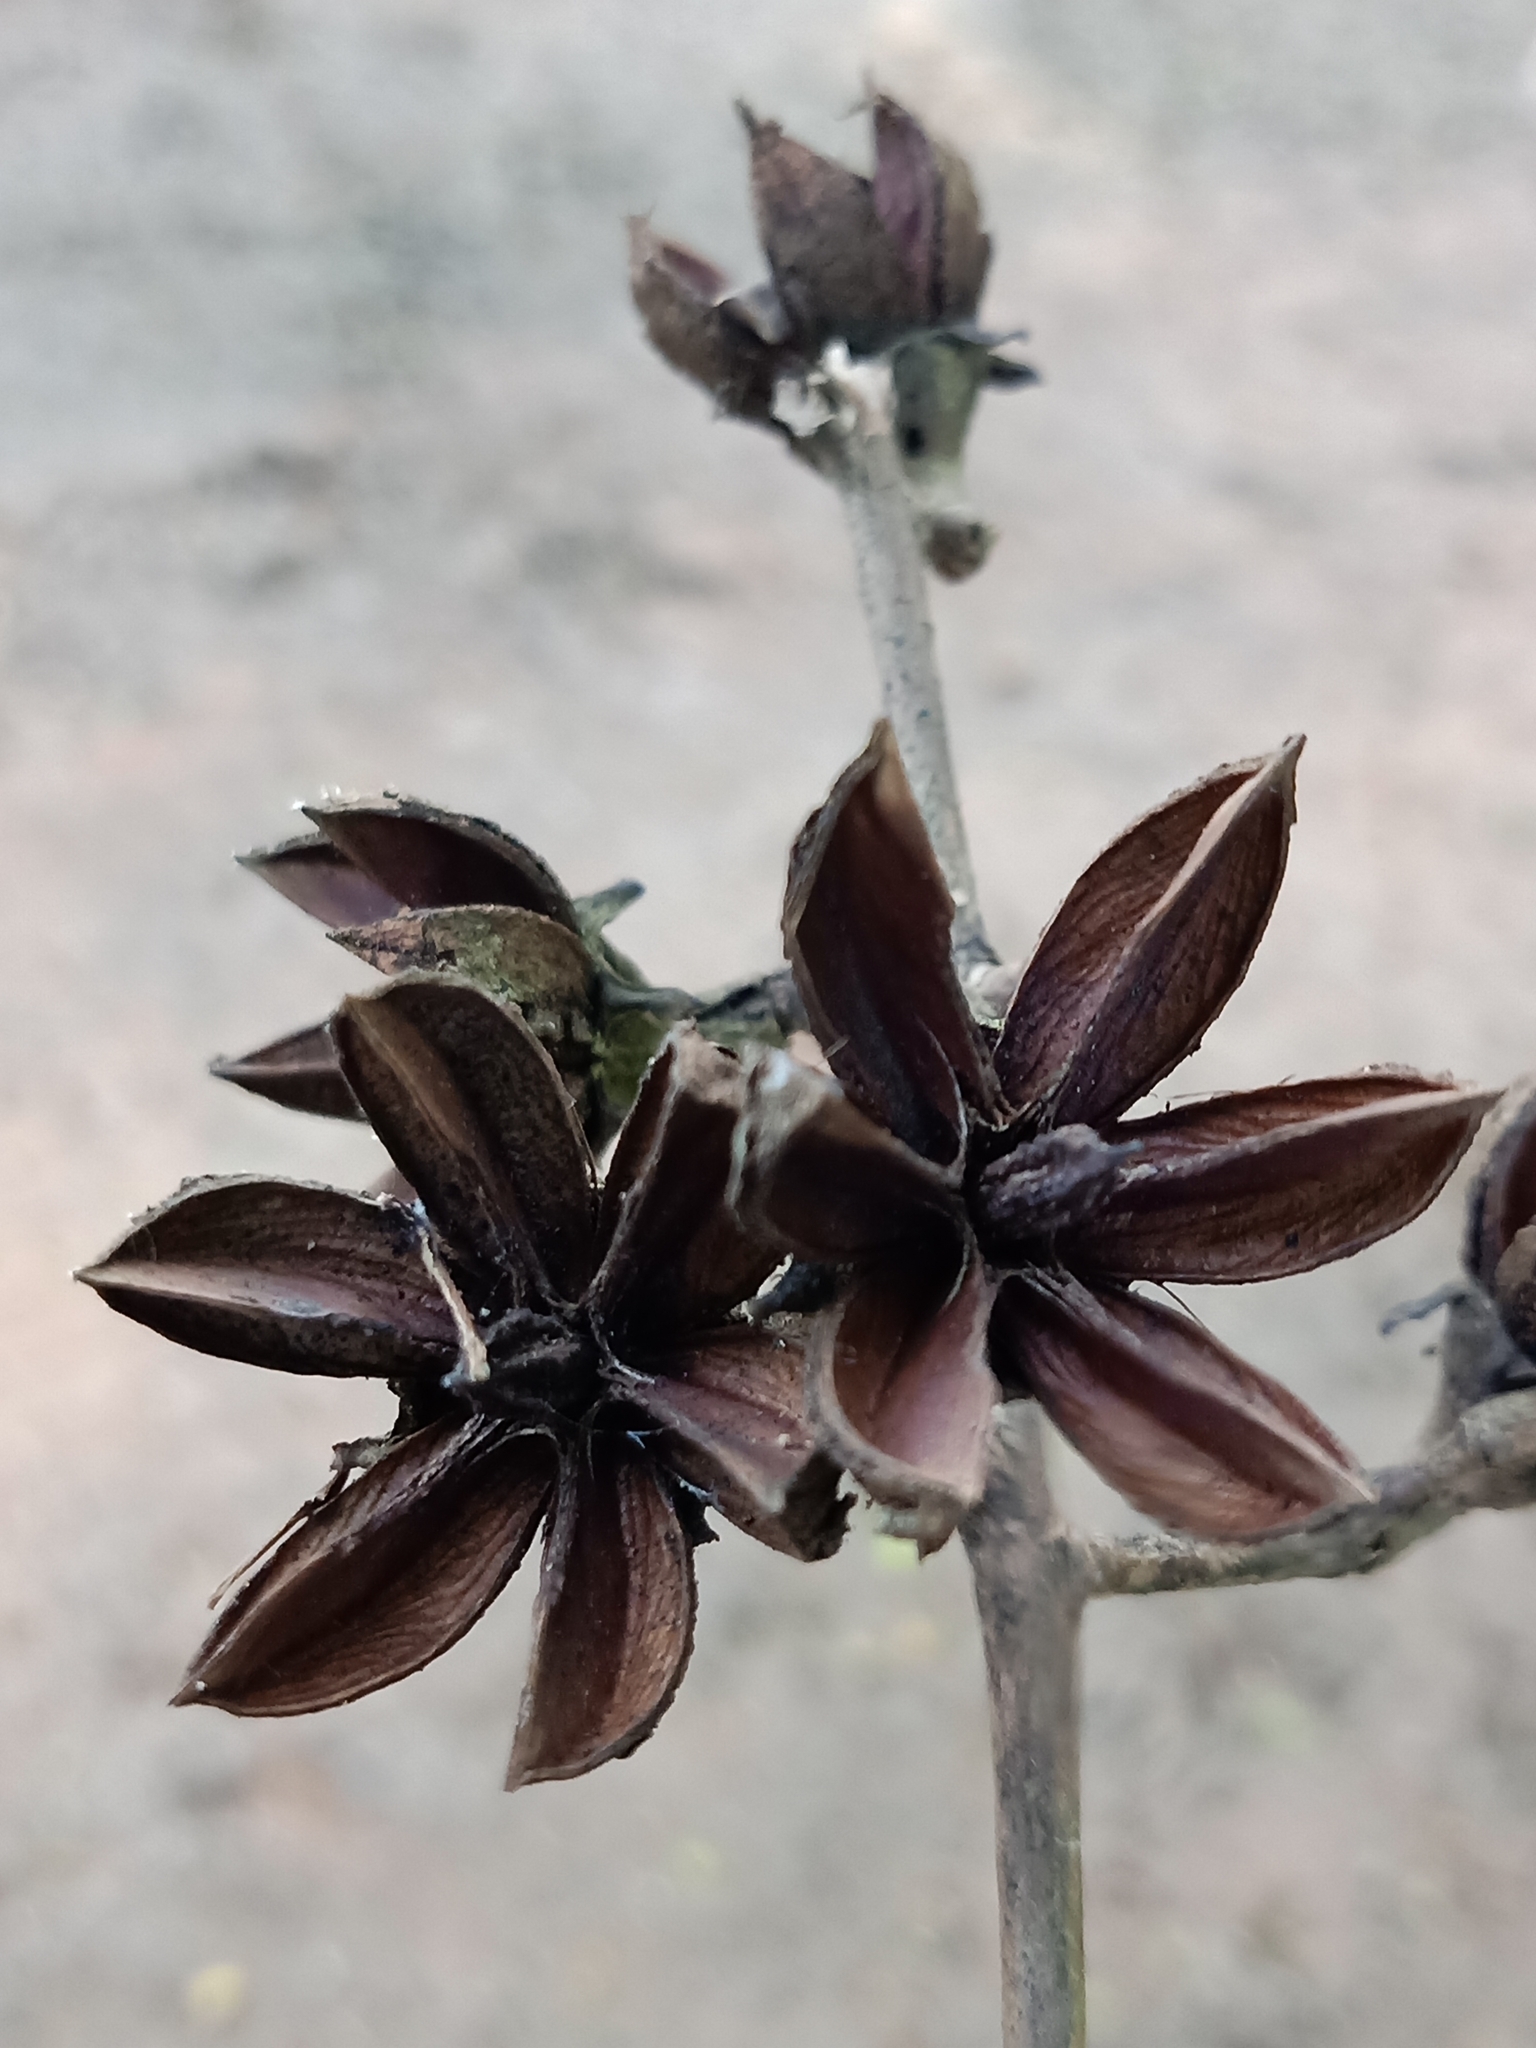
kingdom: Plantae
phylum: Tracheophyta
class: Magnoliopsida
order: Myrtales
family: Lythraceae
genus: Lagerstroemia
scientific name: Lagerstroemia speciosa
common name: Queen's crape-myrtle
